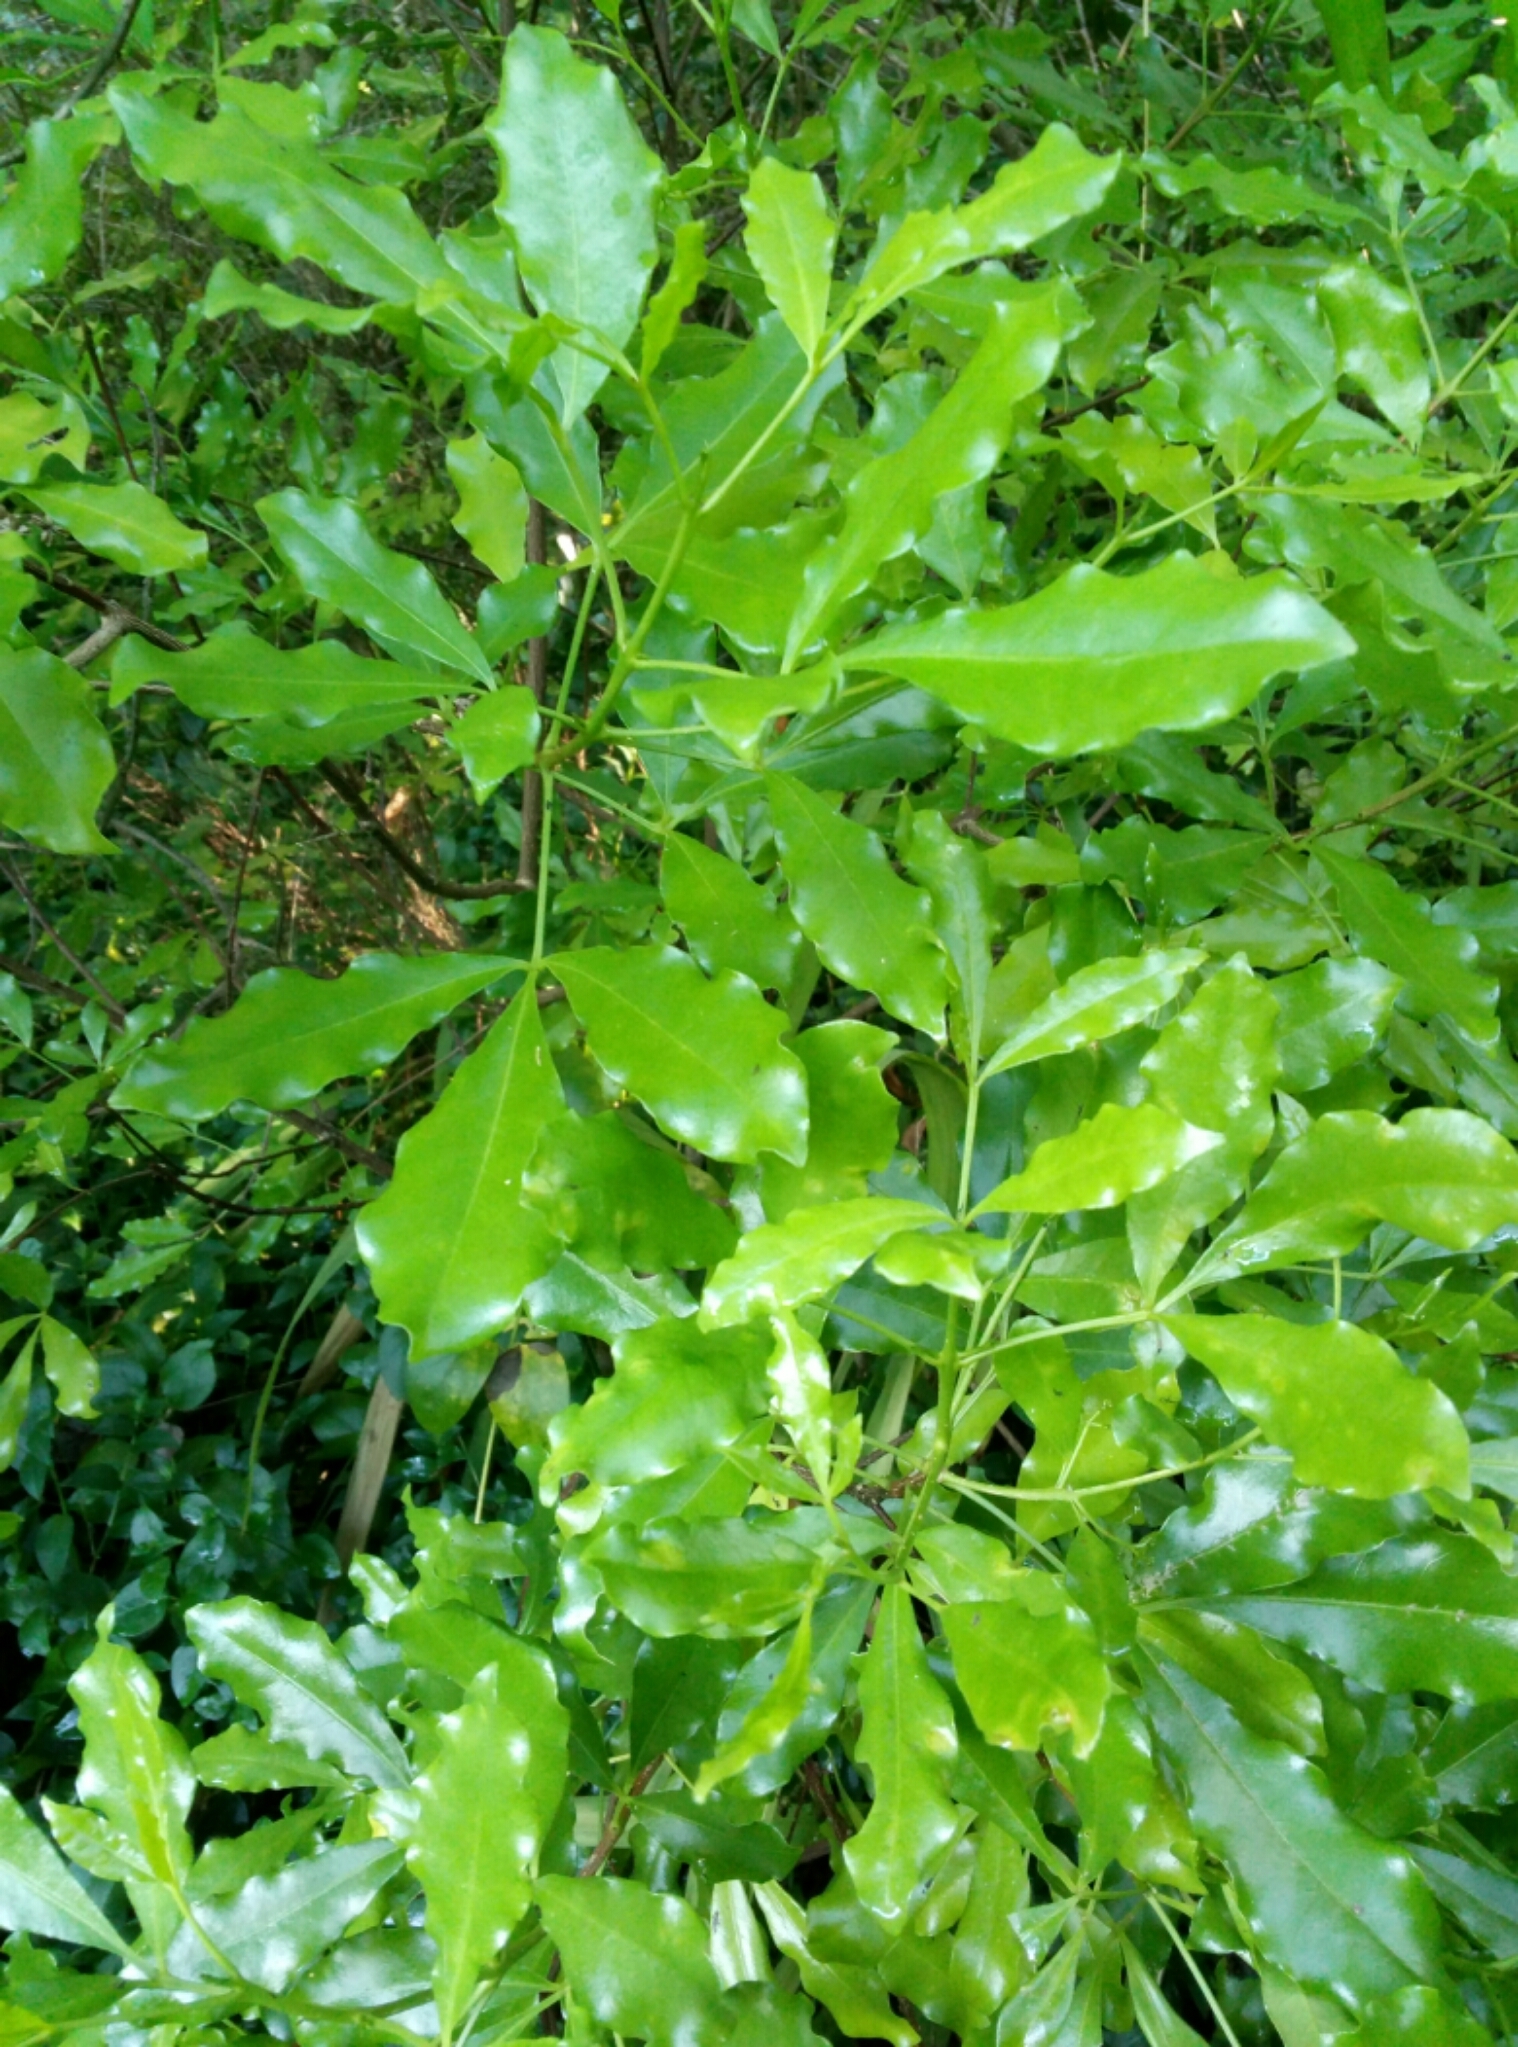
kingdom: Plantae
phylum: Tracheophyta
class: Magnoliopsida
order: Sapindales
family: Rutaceae
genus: Melicope
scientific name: Melicope ternata
